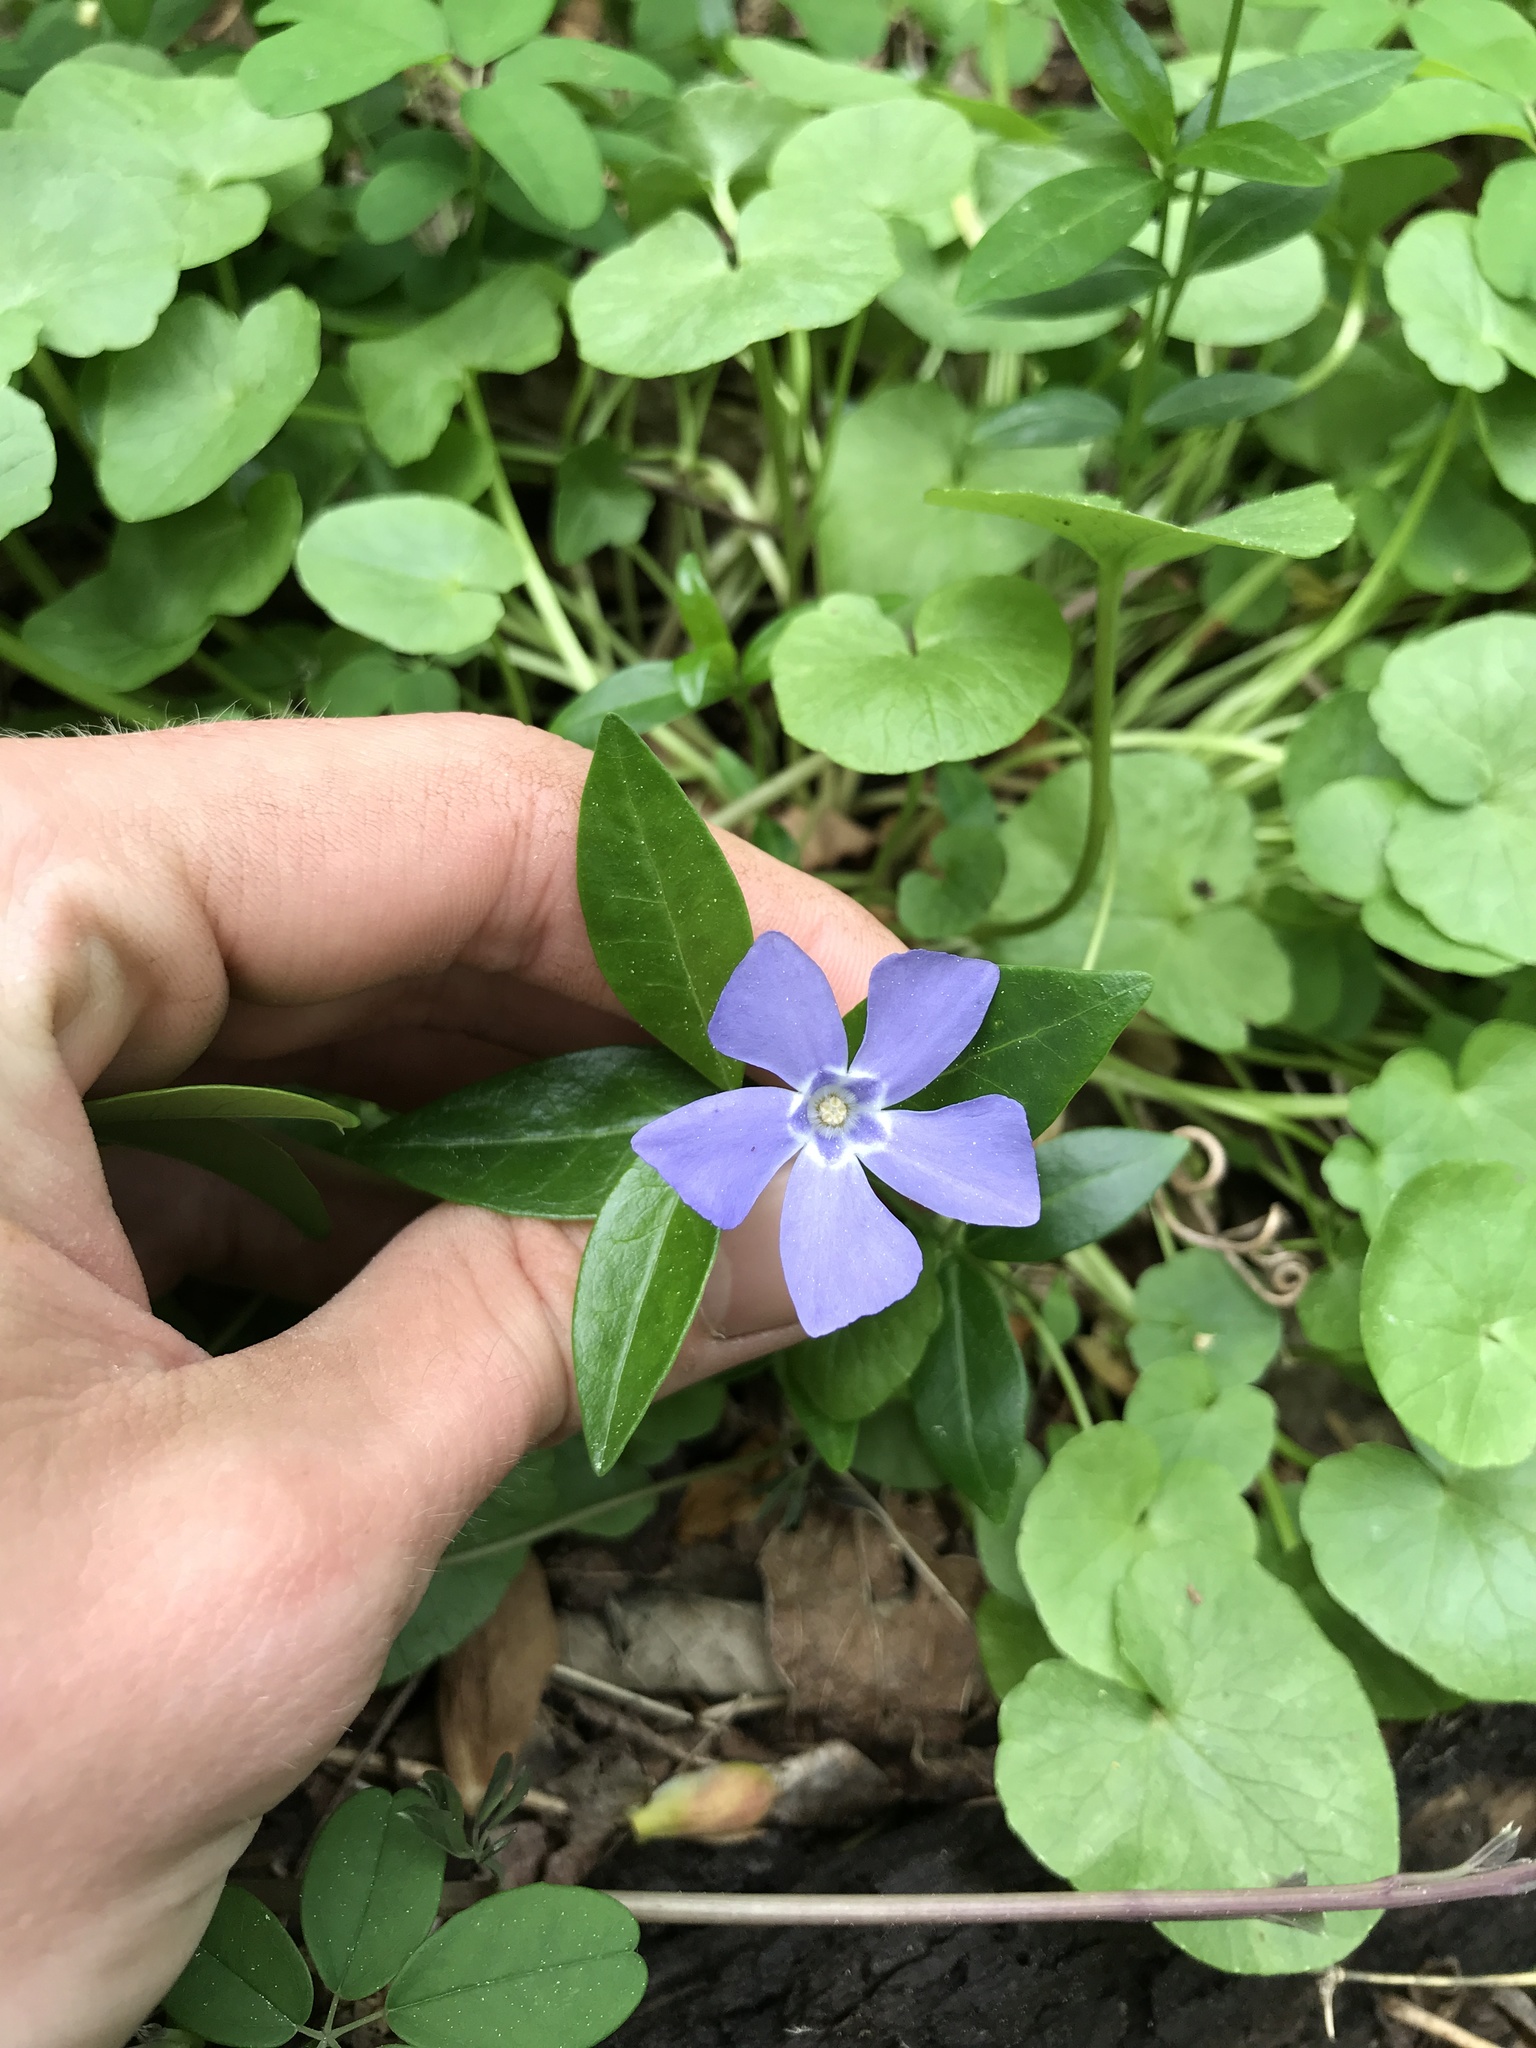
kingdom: Plantae
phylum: Tracheophyta
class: Magnoliopsida
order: Gentianales
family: Apocynaceae
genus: Vinca
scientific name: Vinca minor
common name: Lesser periwinkle
